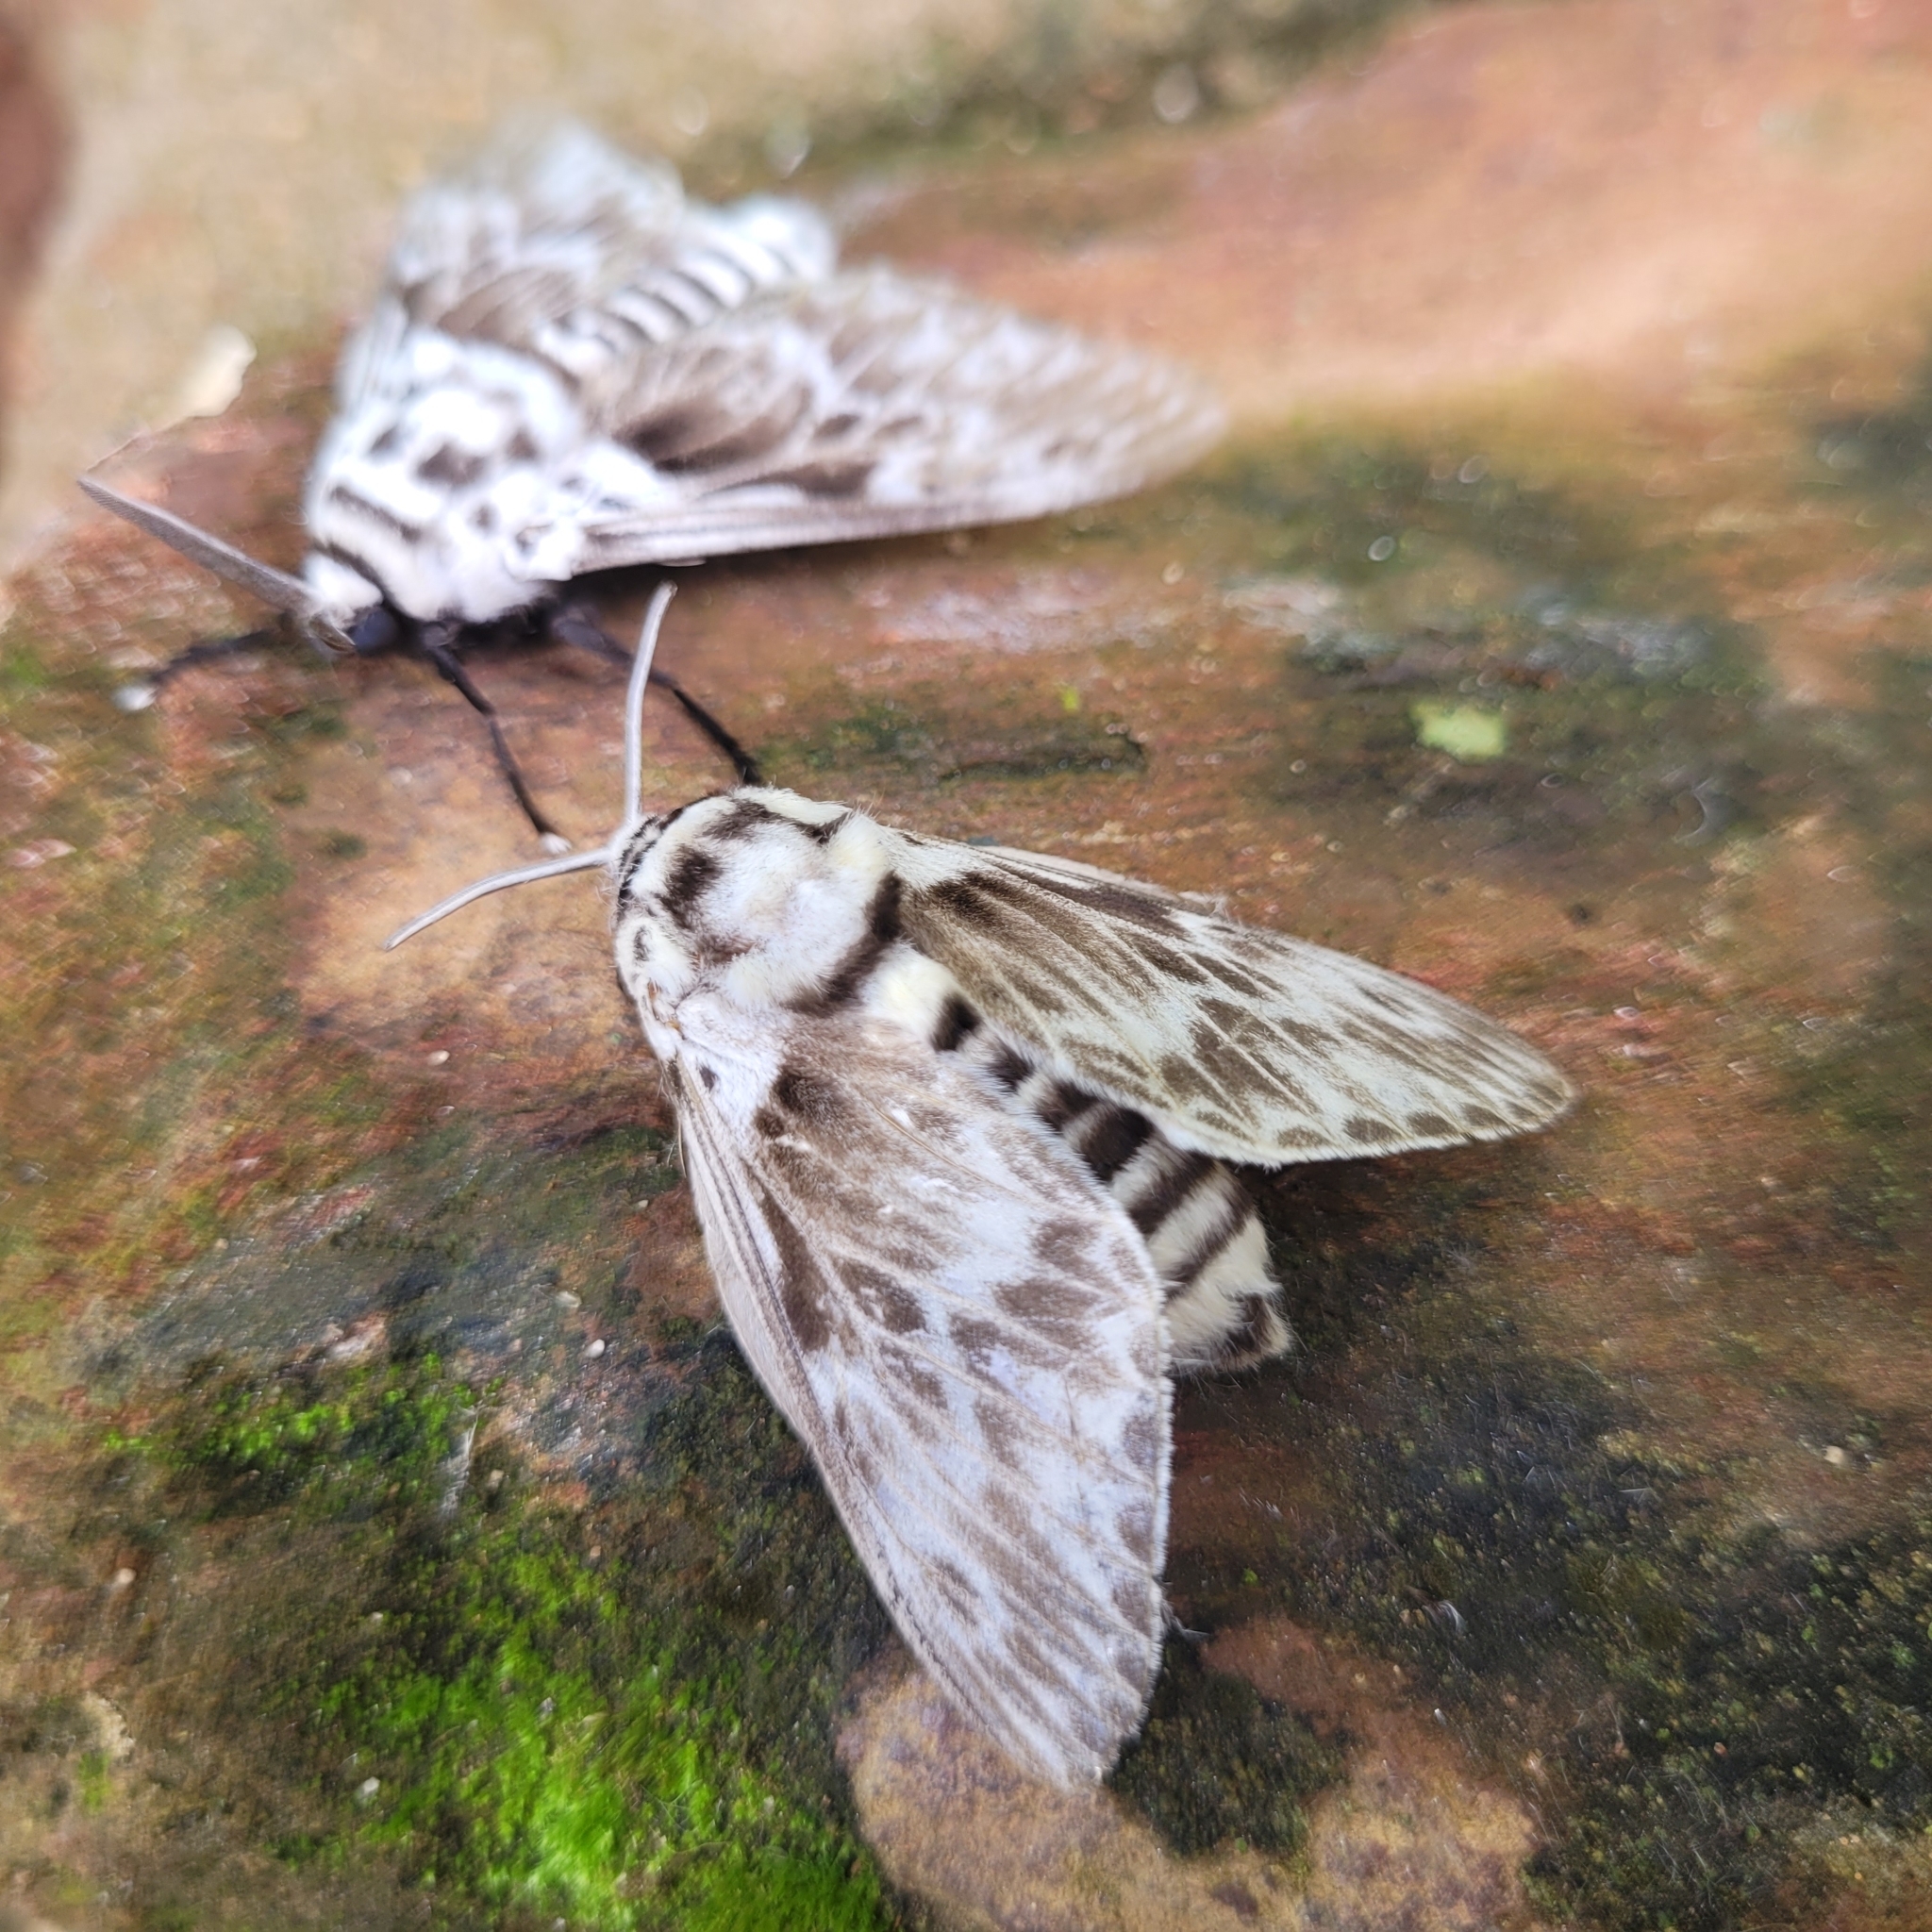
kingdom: Animalia
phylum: Arthropoda
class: Insecta
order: Lepidoptera
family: Megalopygidae
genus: Podalia
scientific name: Podalia orsilochus
